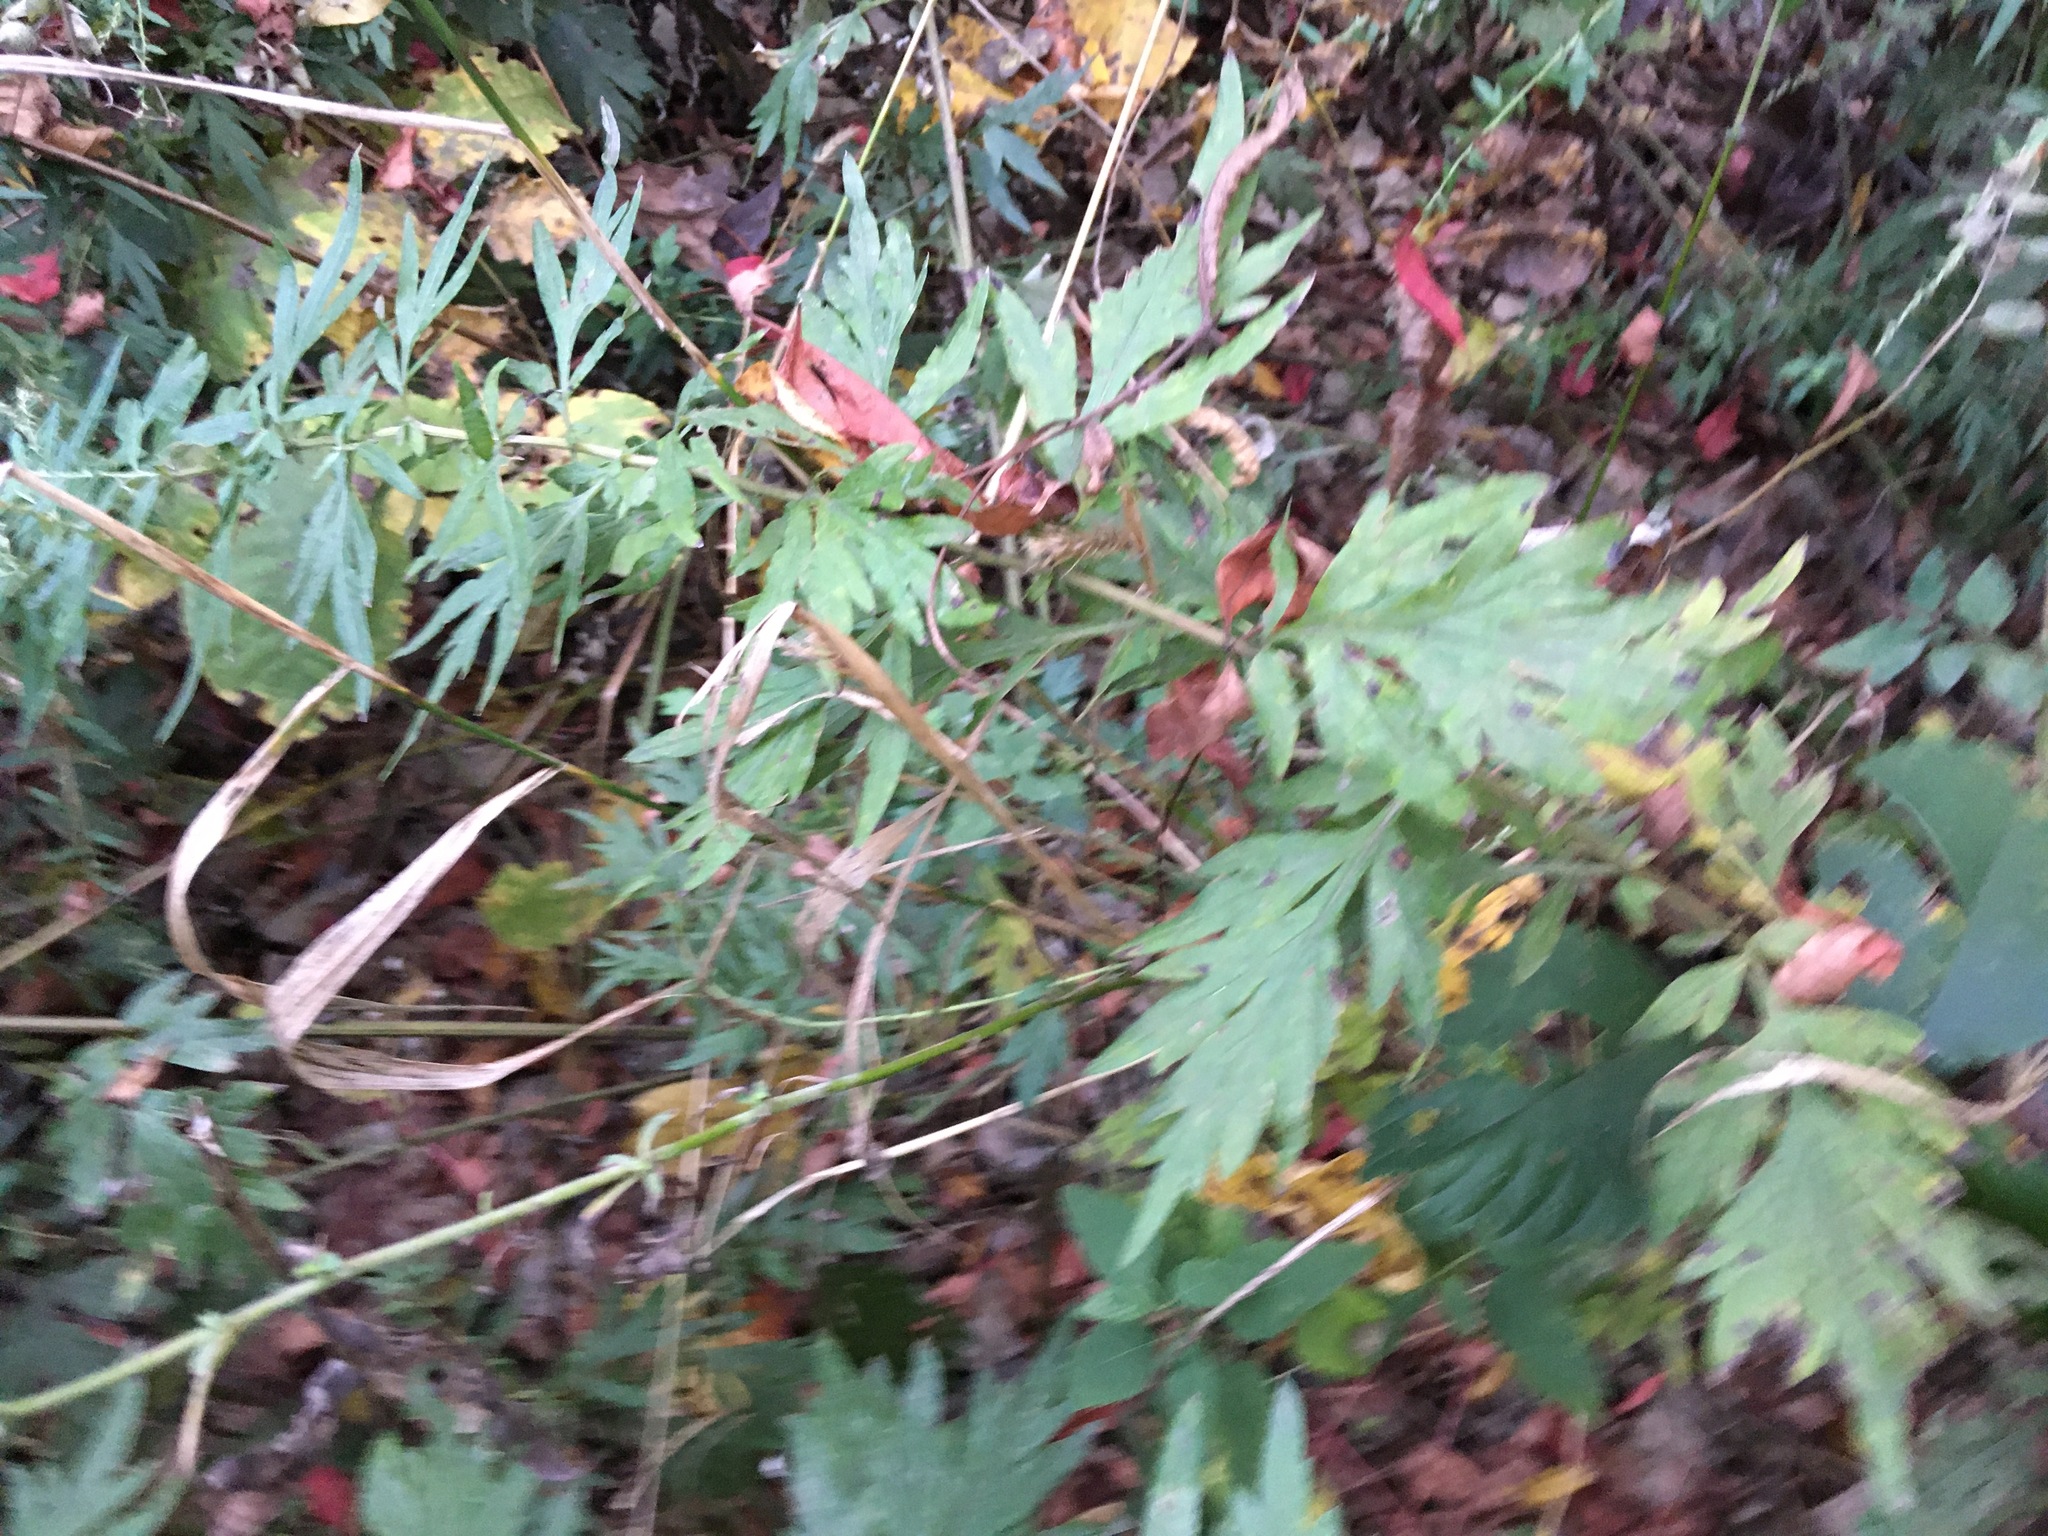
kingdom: Plantae
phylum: Tracheophyta
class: Magnoliopsida
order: Asterales
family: Asteraceae
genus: Artemisia
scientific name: Artemisia vulgaris
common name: Mugwort
